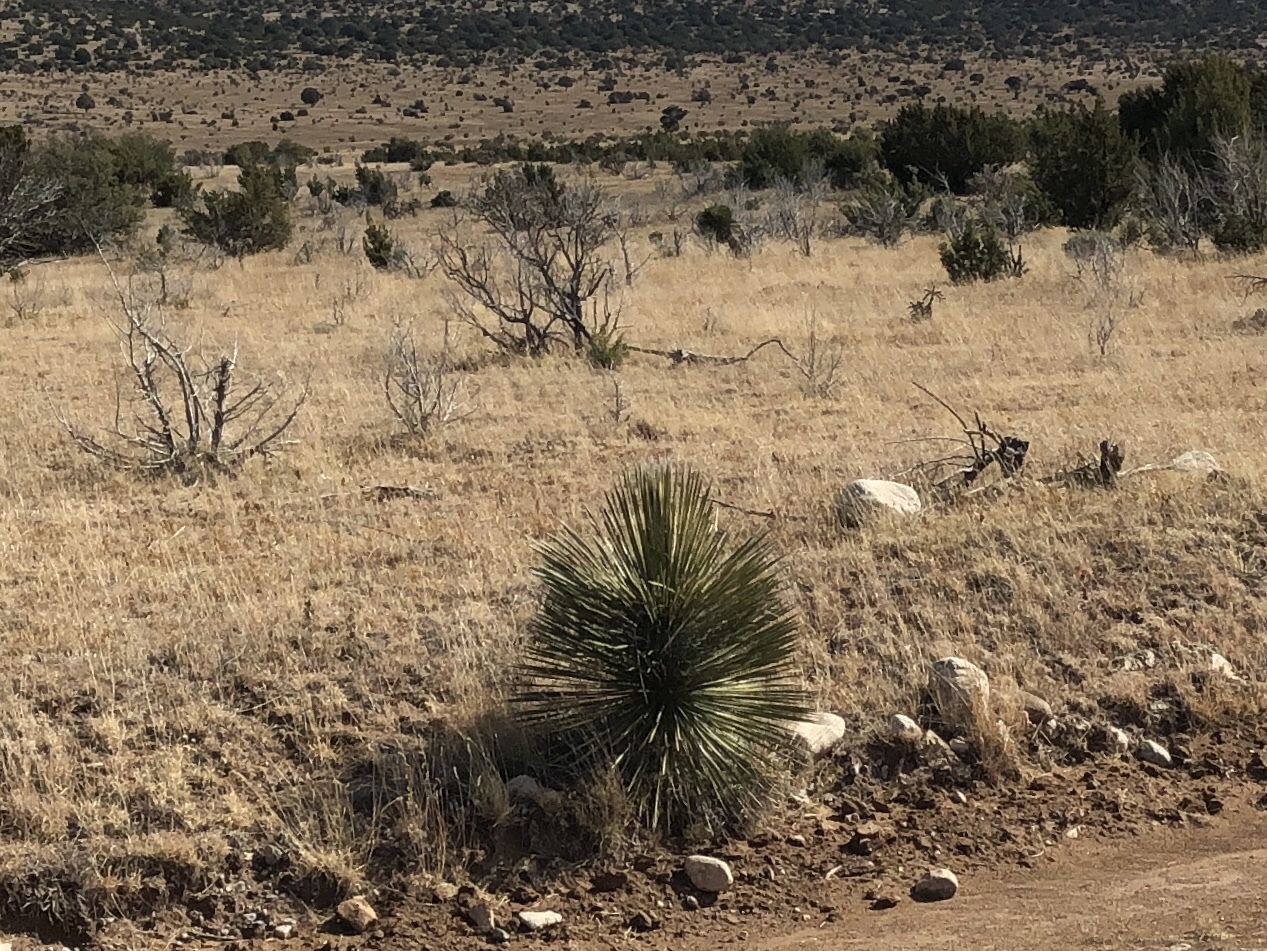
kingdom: Plantae
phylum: Tracheophyta
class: Liliopsida
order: Asparagales
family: Asparagaceae
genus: Yucca
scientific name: Yucca elata
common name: Palmella
